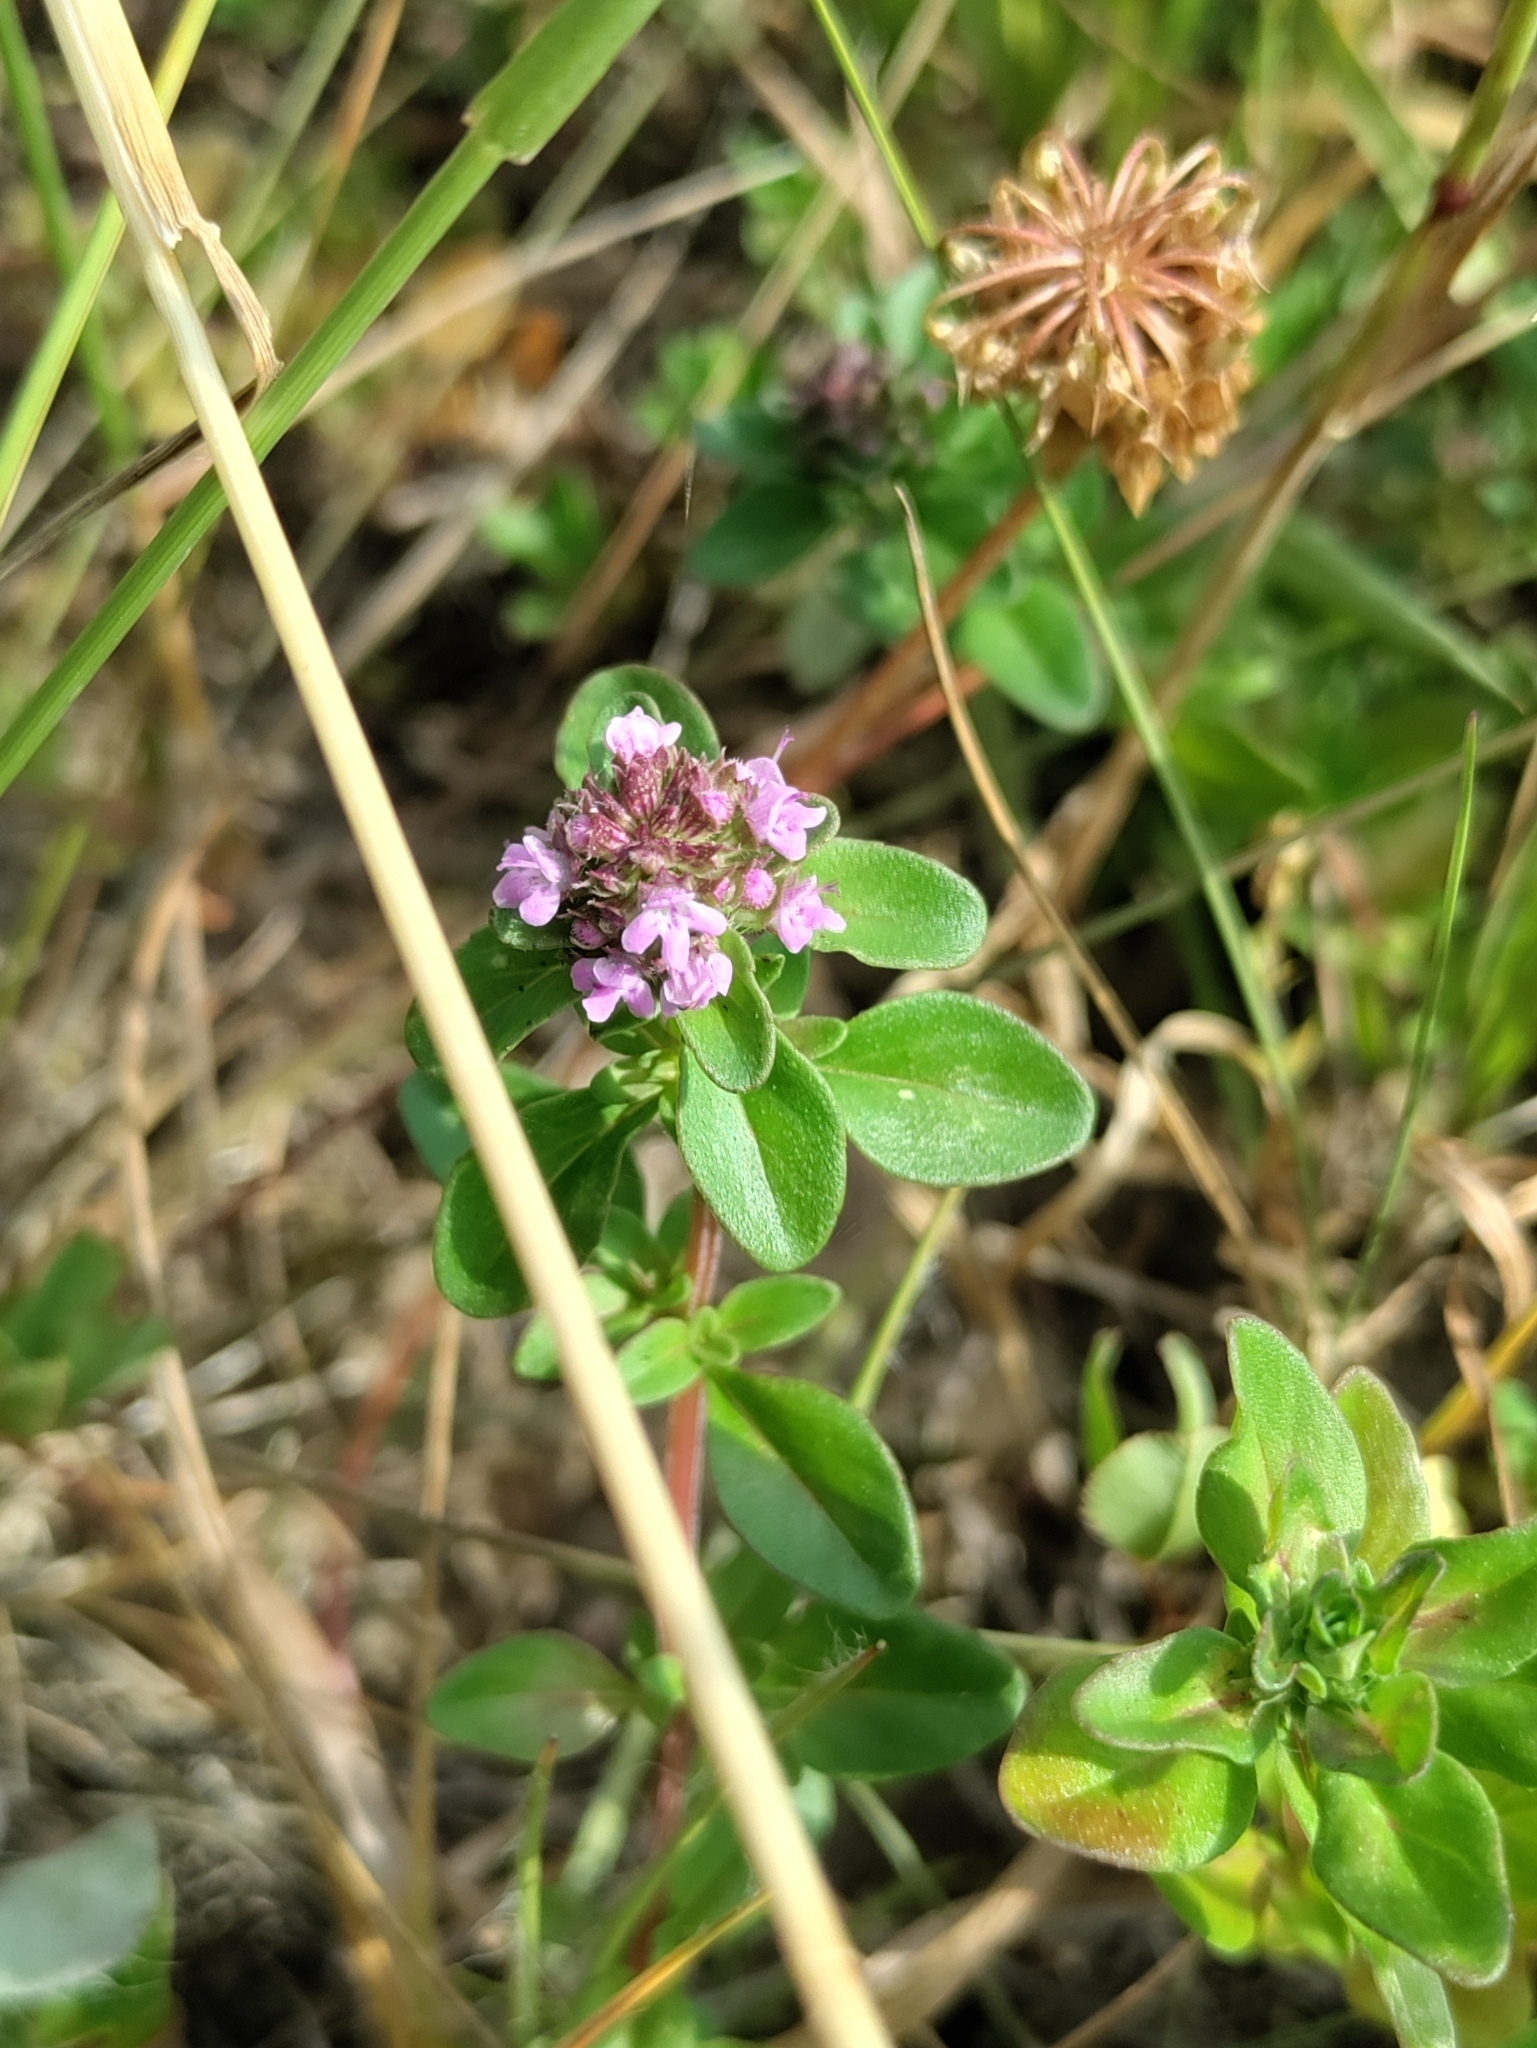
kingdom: Plantae
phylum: Tracheophyta
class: Magnoliopsida
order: Lamiales
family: Lamiaceae
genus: Thymus
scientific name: Thymus pulegioides
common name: Large thyme
